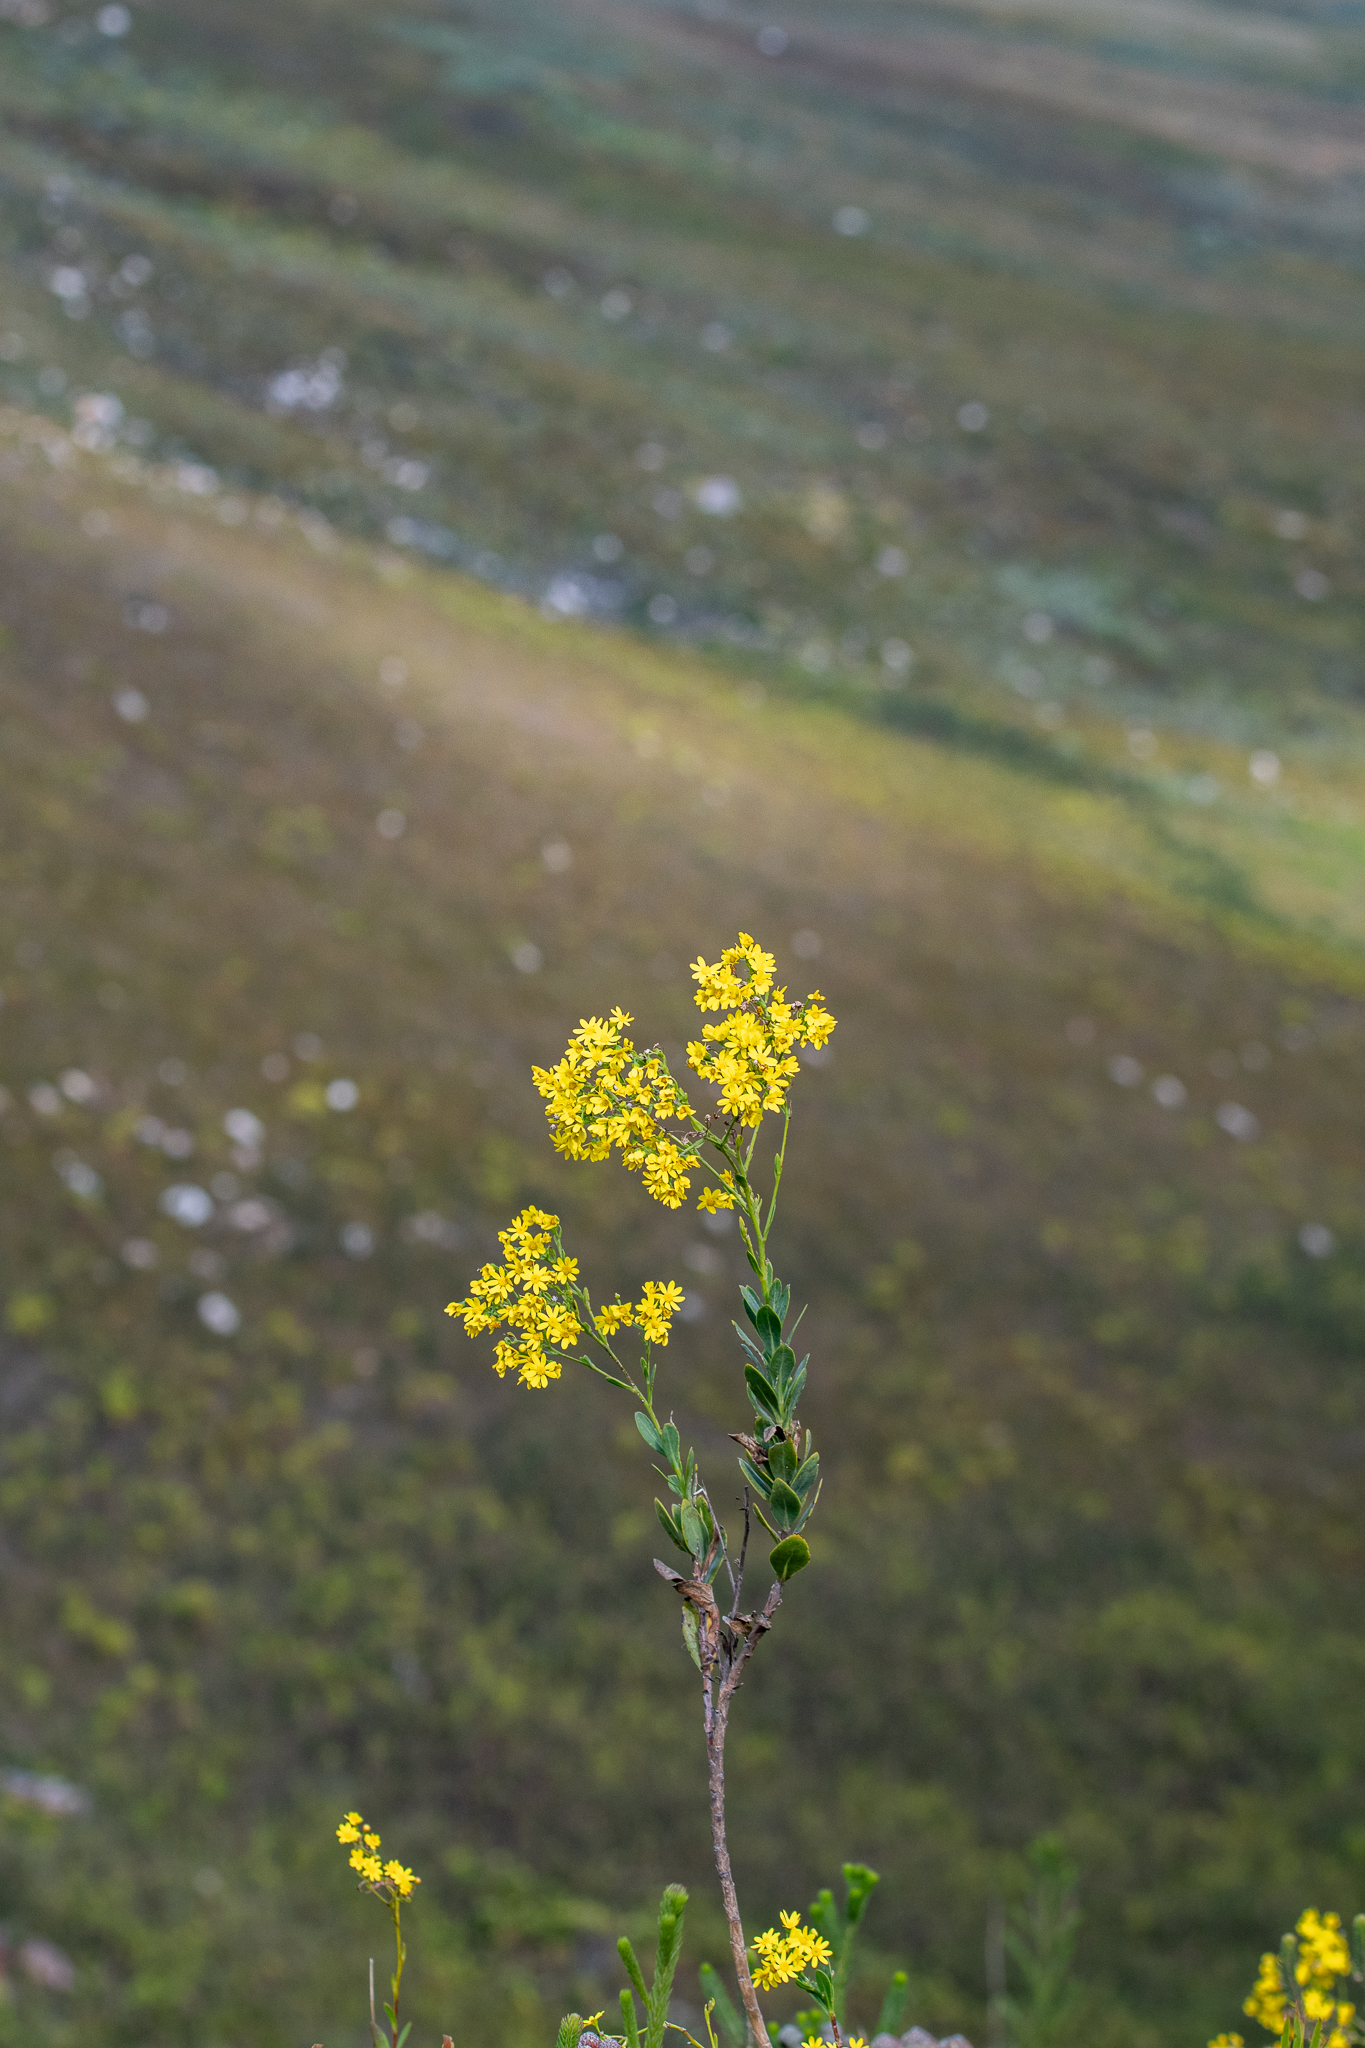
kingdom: Plantae
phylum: Tracheophyta
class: Magnoliopsida
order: Asterales
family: Asteraceae
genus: Othonna
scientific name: Othonna quinquedentata
